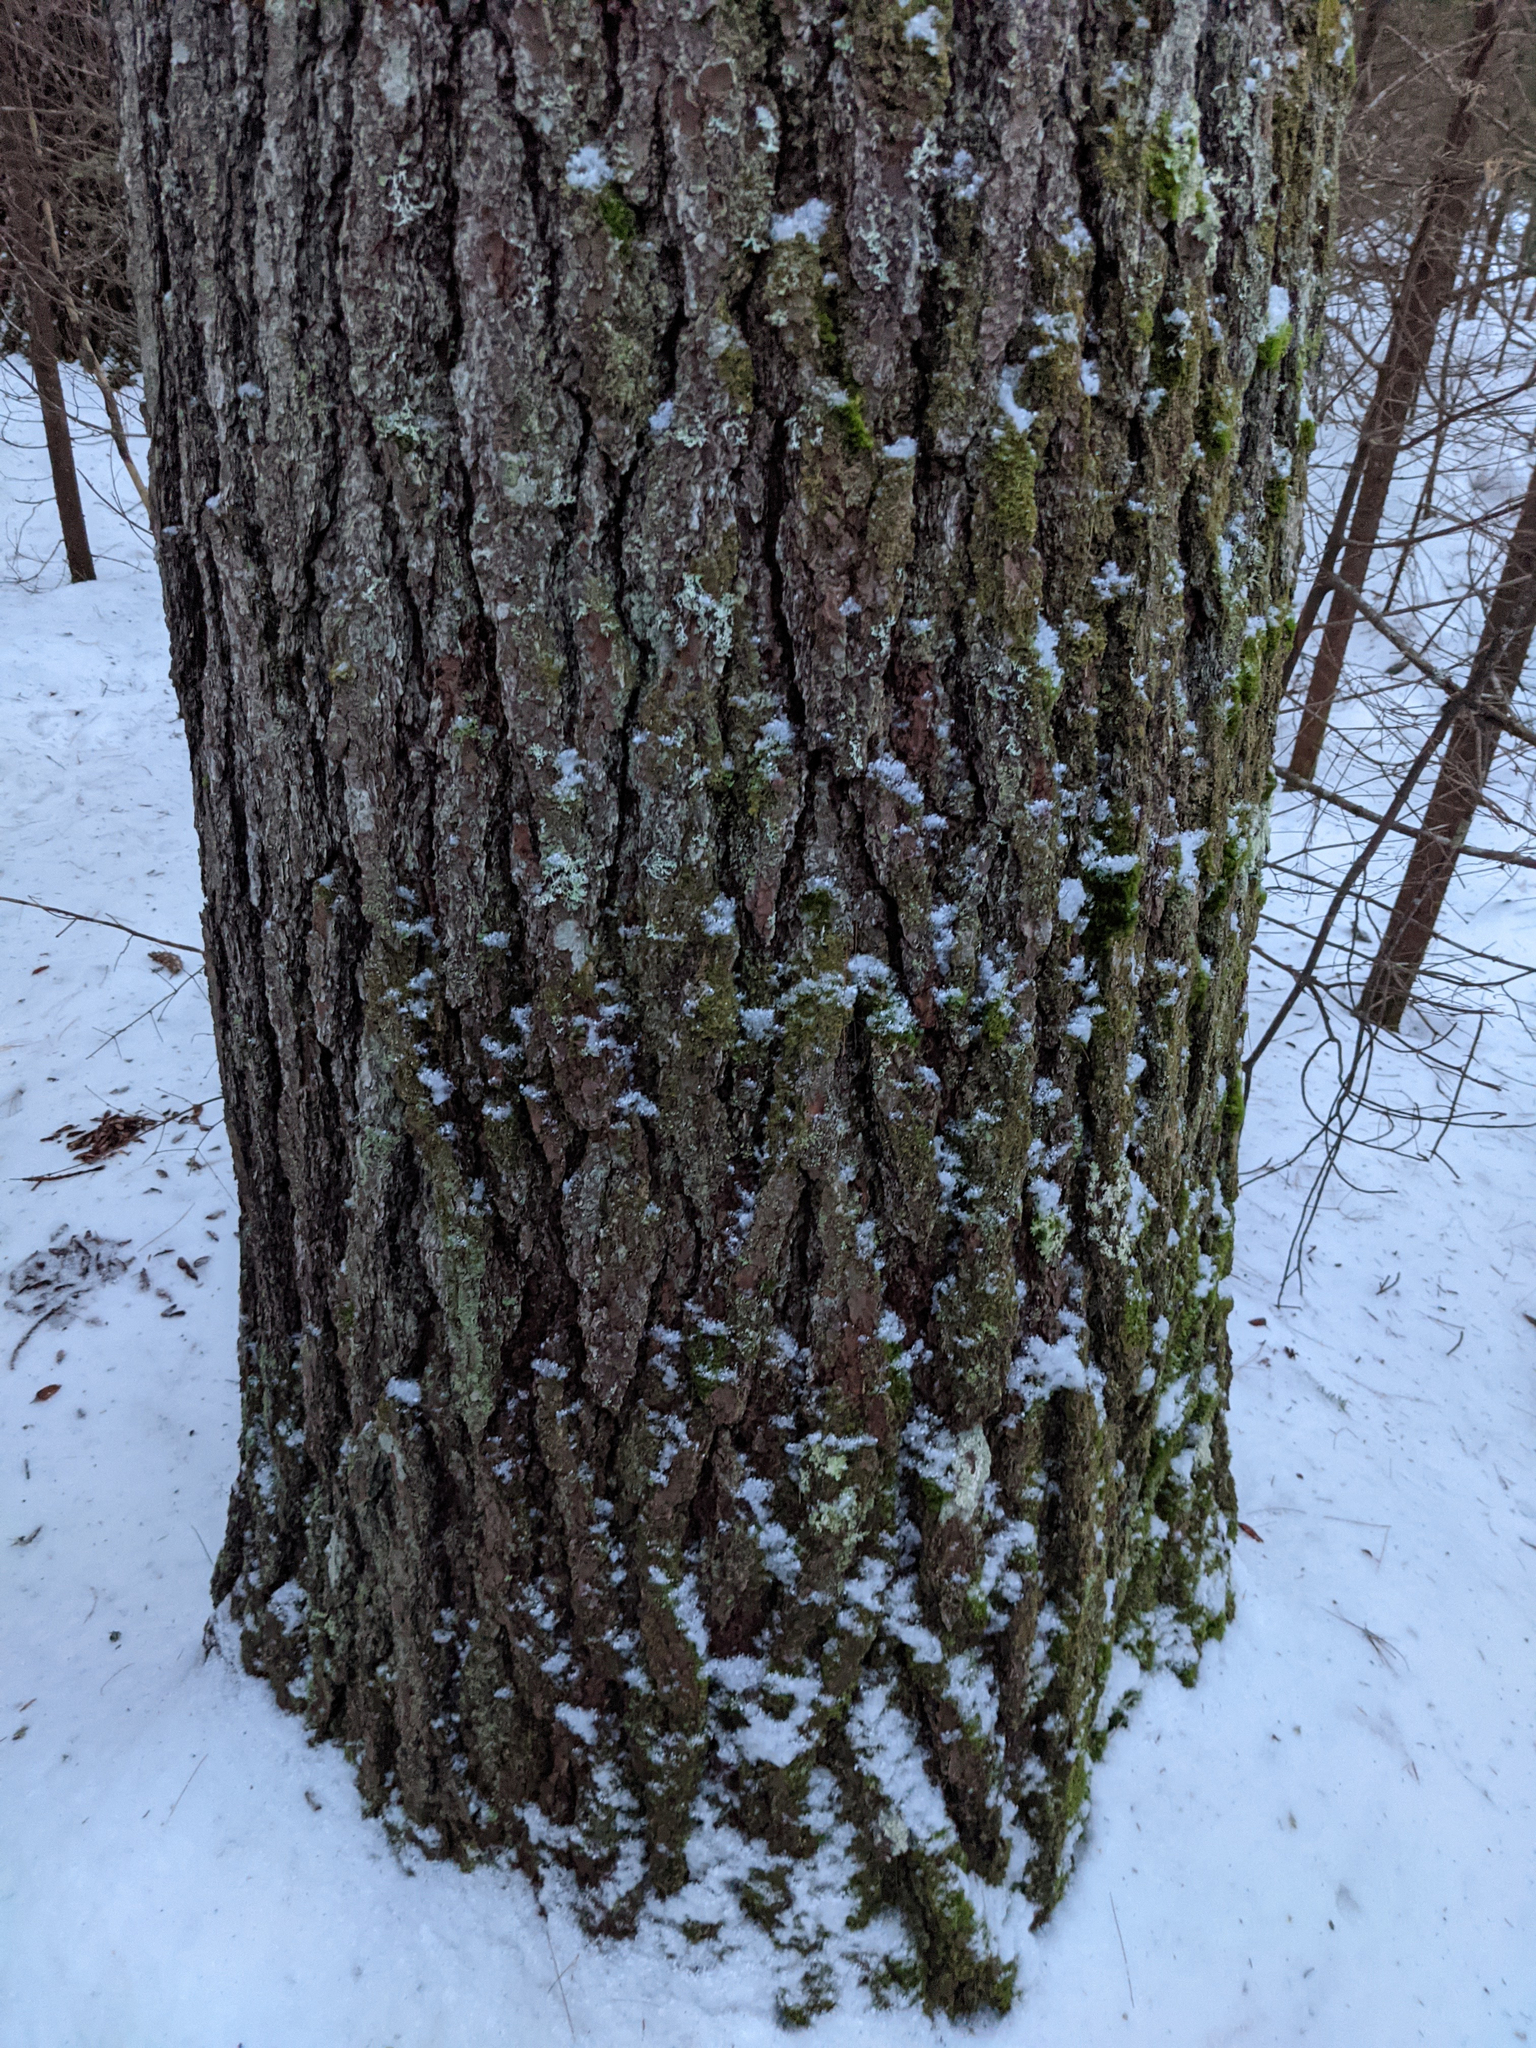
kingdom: Plantae
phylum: Tracheophyta
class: Pinopsida
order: Pinales
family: Pinaceae
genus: Pinus
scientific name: Pinus strobus
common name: Weymouth pine
